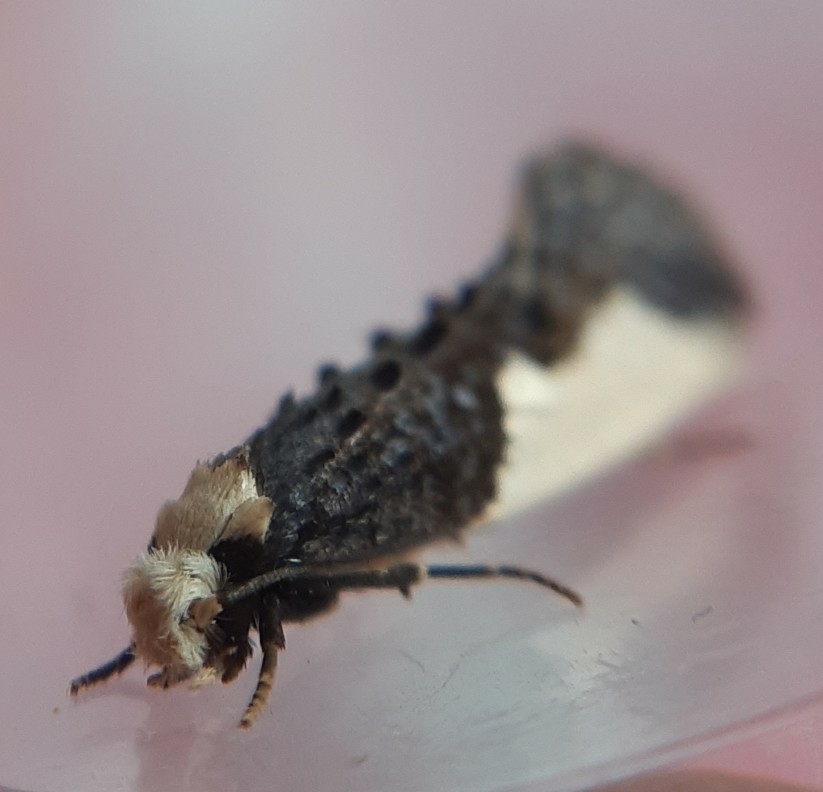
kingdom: Animalia
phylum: Arthropoda
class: Insecta
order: Lepidoptera
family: Tineidae
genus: Monopis
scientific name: Monopis monachella
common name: Moth
